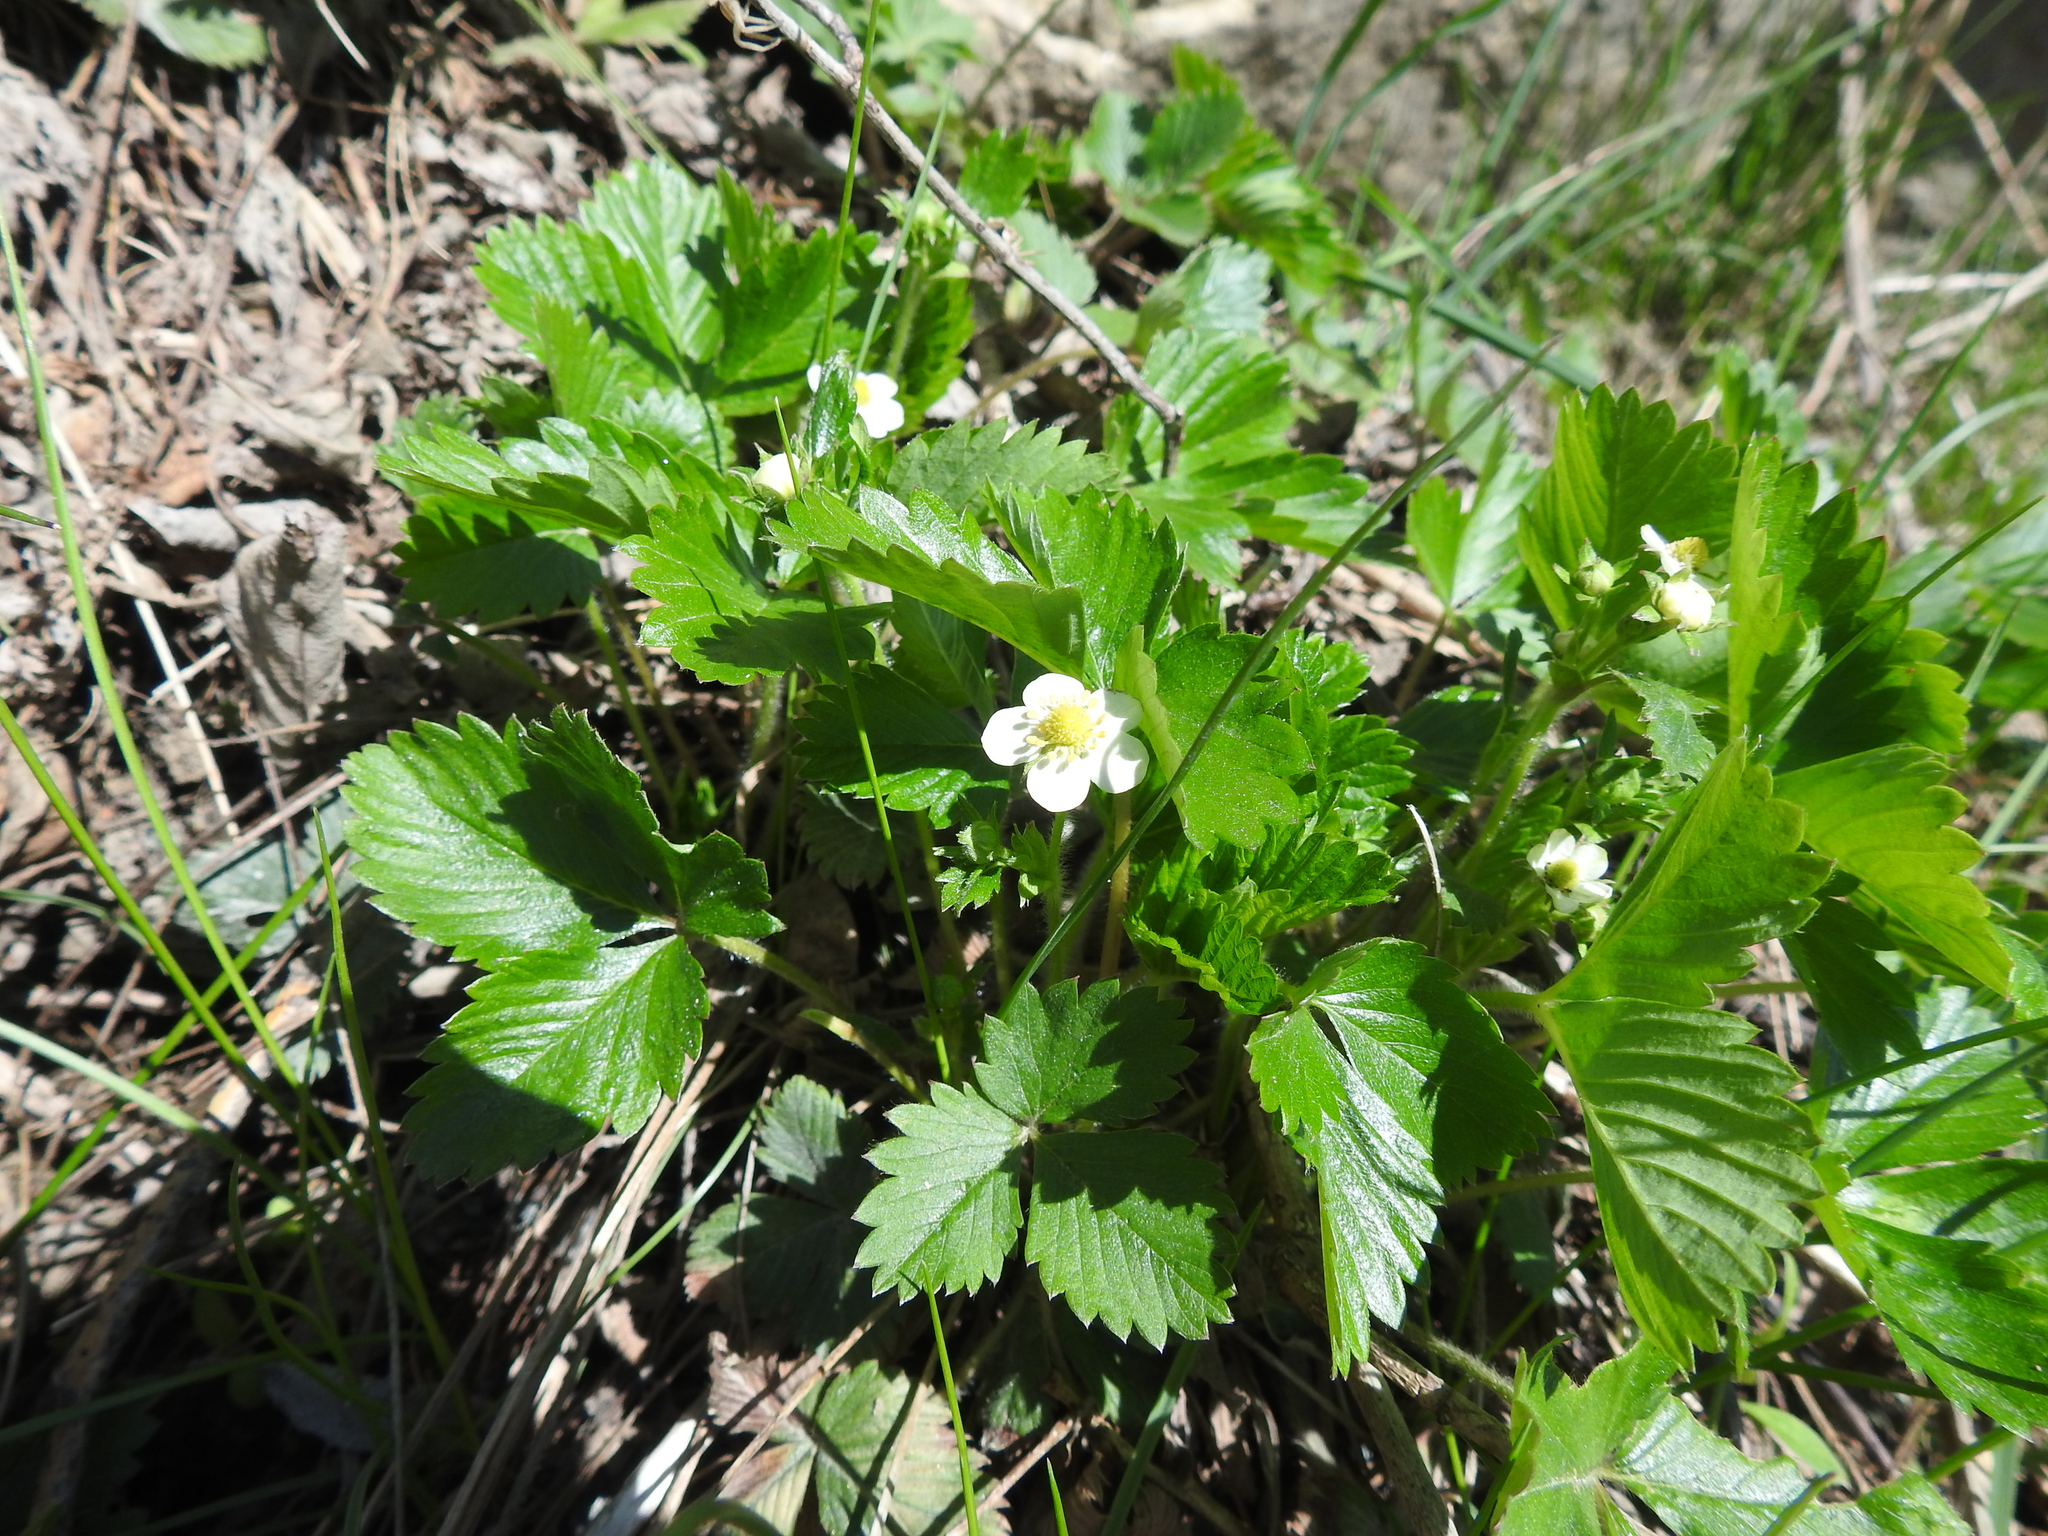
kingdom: Plantae
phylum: Tracheophyta
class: Magnoliopsida
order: Rosales
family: Rosaceae
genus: Fragaria
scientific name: Fragaria vesca
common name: Wild strawberry
